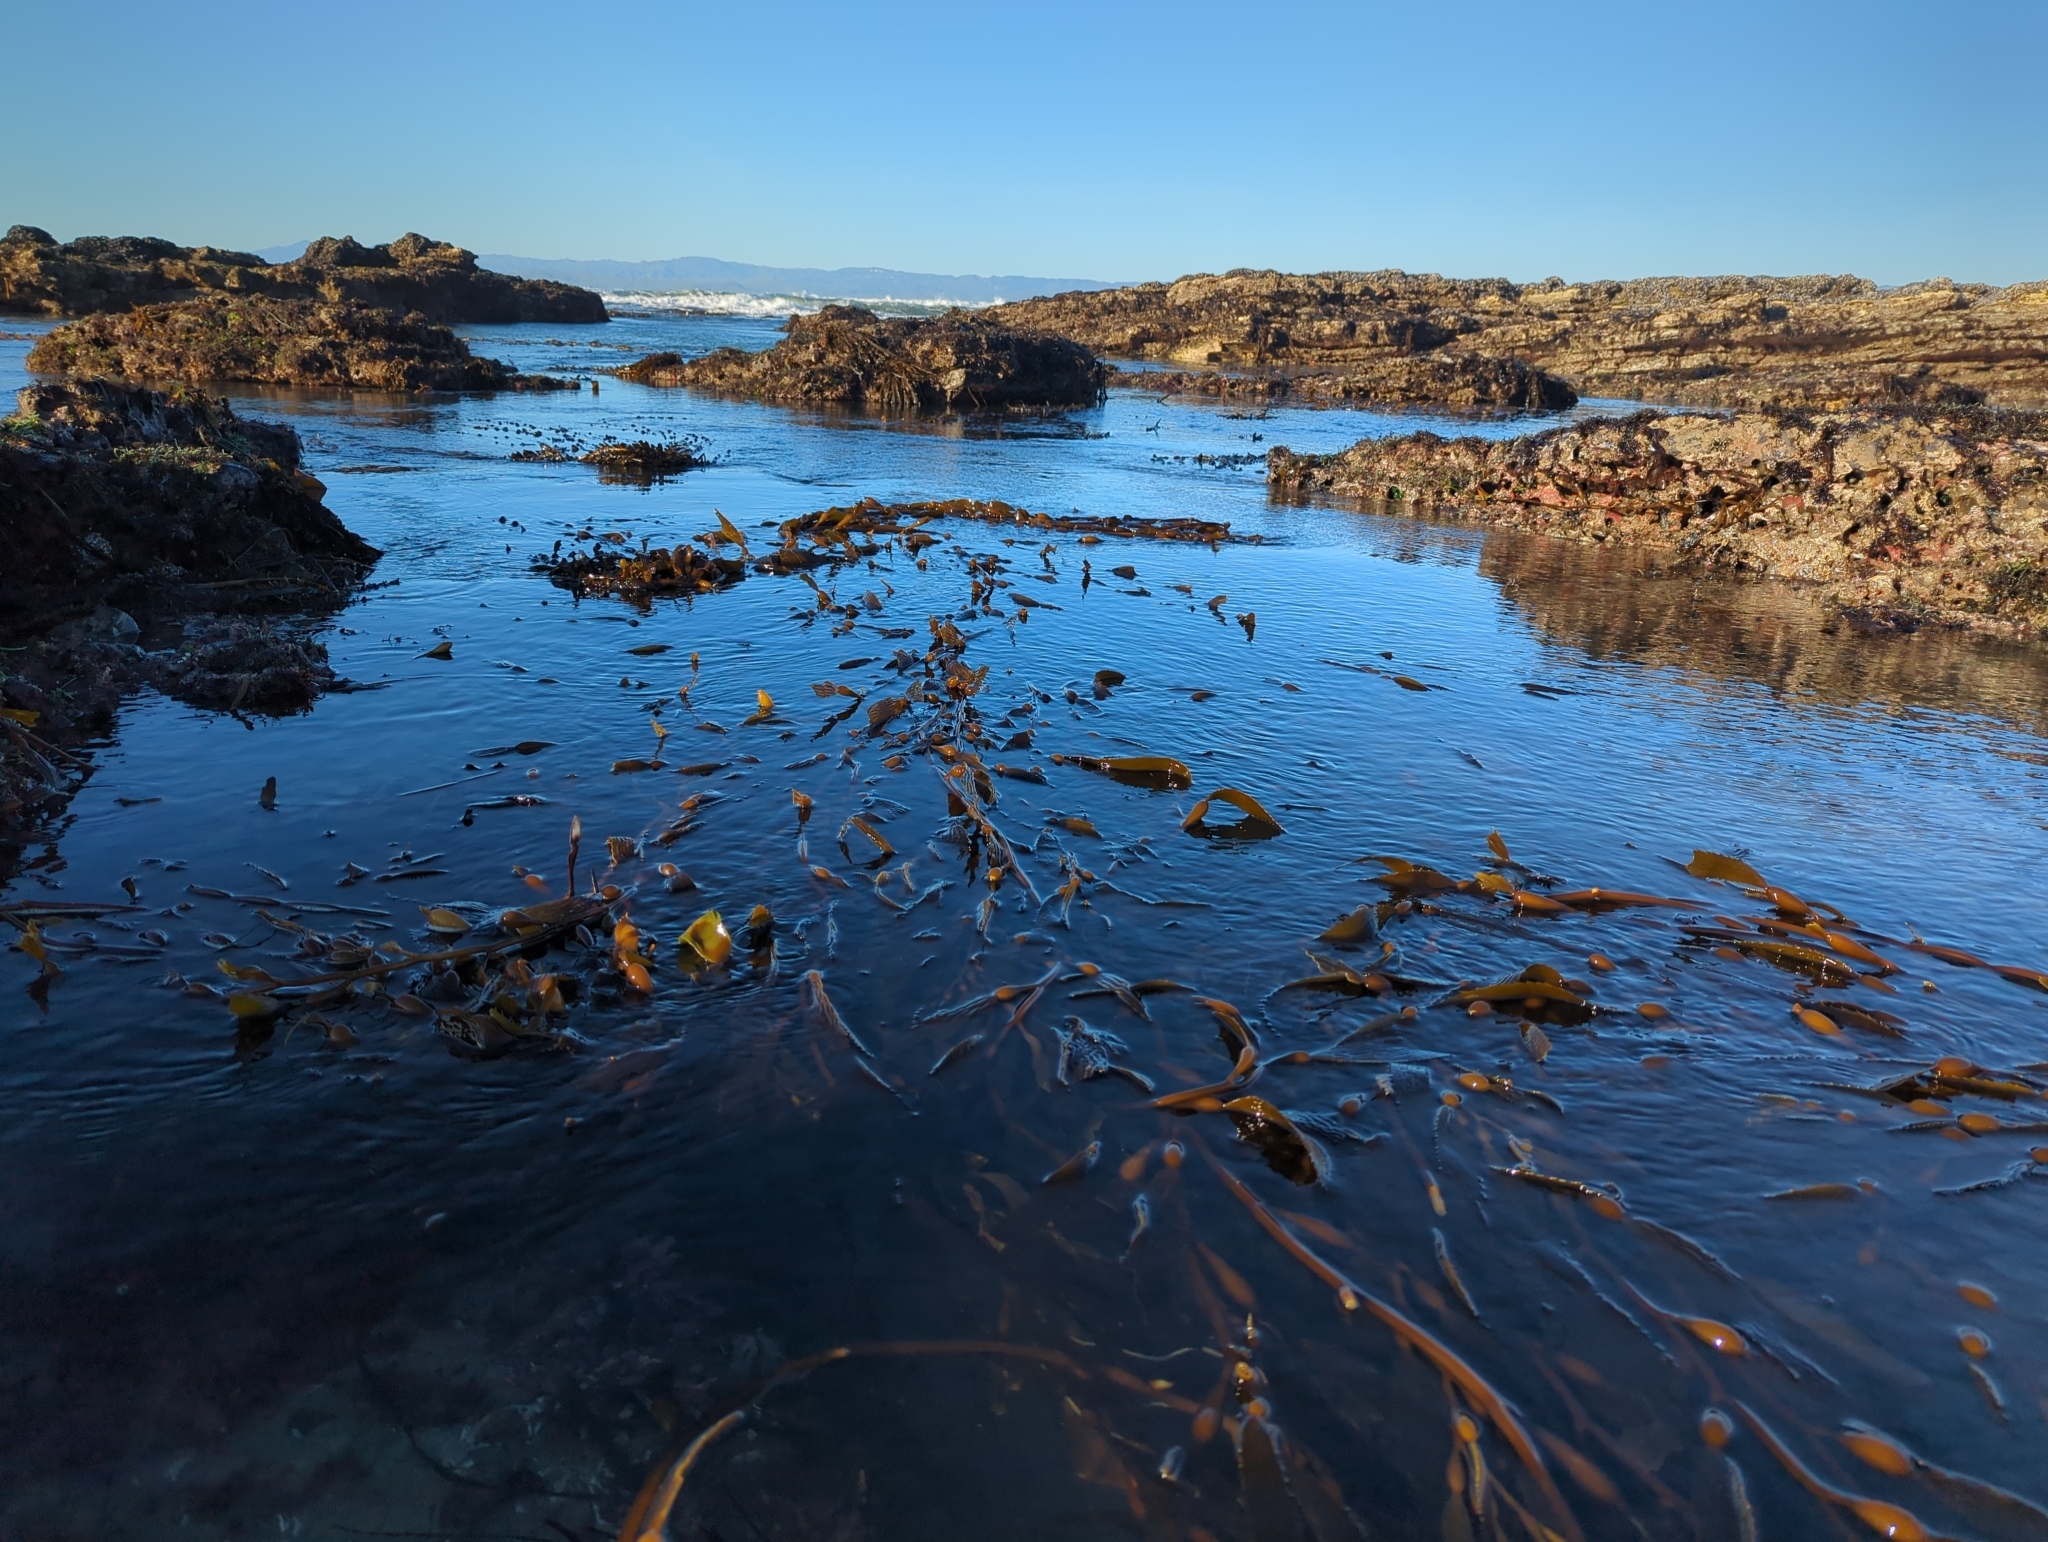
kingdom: Chromista
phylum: Ochrophyta
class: Phaeophyceae
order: Laminariales
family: Laminariaceae
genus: Macrocystis
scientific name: Macrocystis pyrifera
